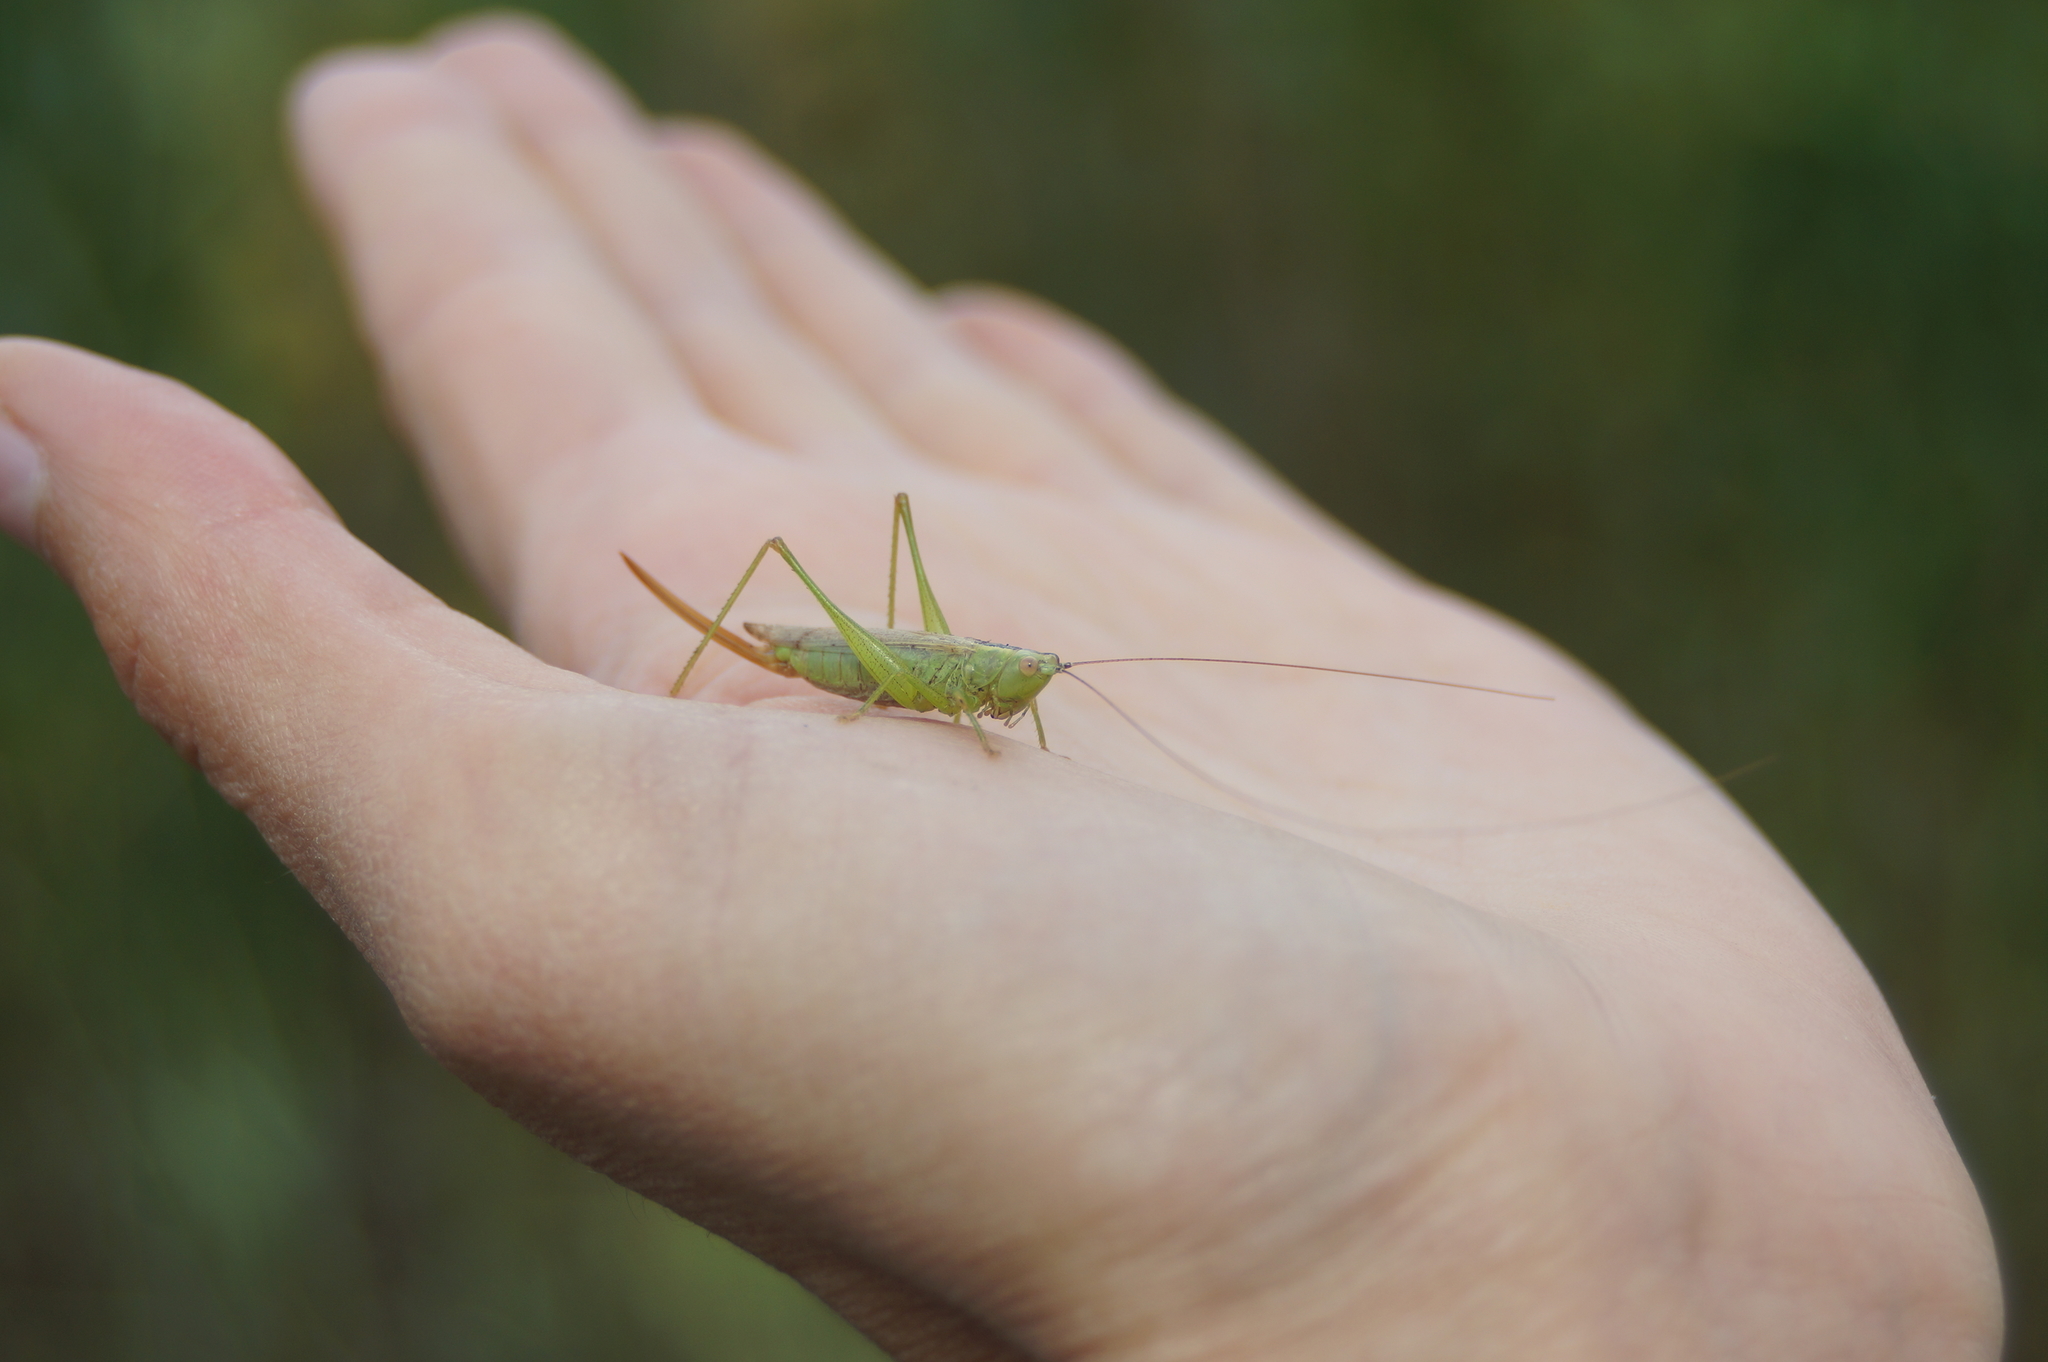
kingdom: Animalia
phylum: Arthropoda
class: Insecta
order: Orthoptera
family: Tettigoniidae
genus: Conocephalus
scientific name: Conocephalus fuscus
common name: Long-winged conehead
